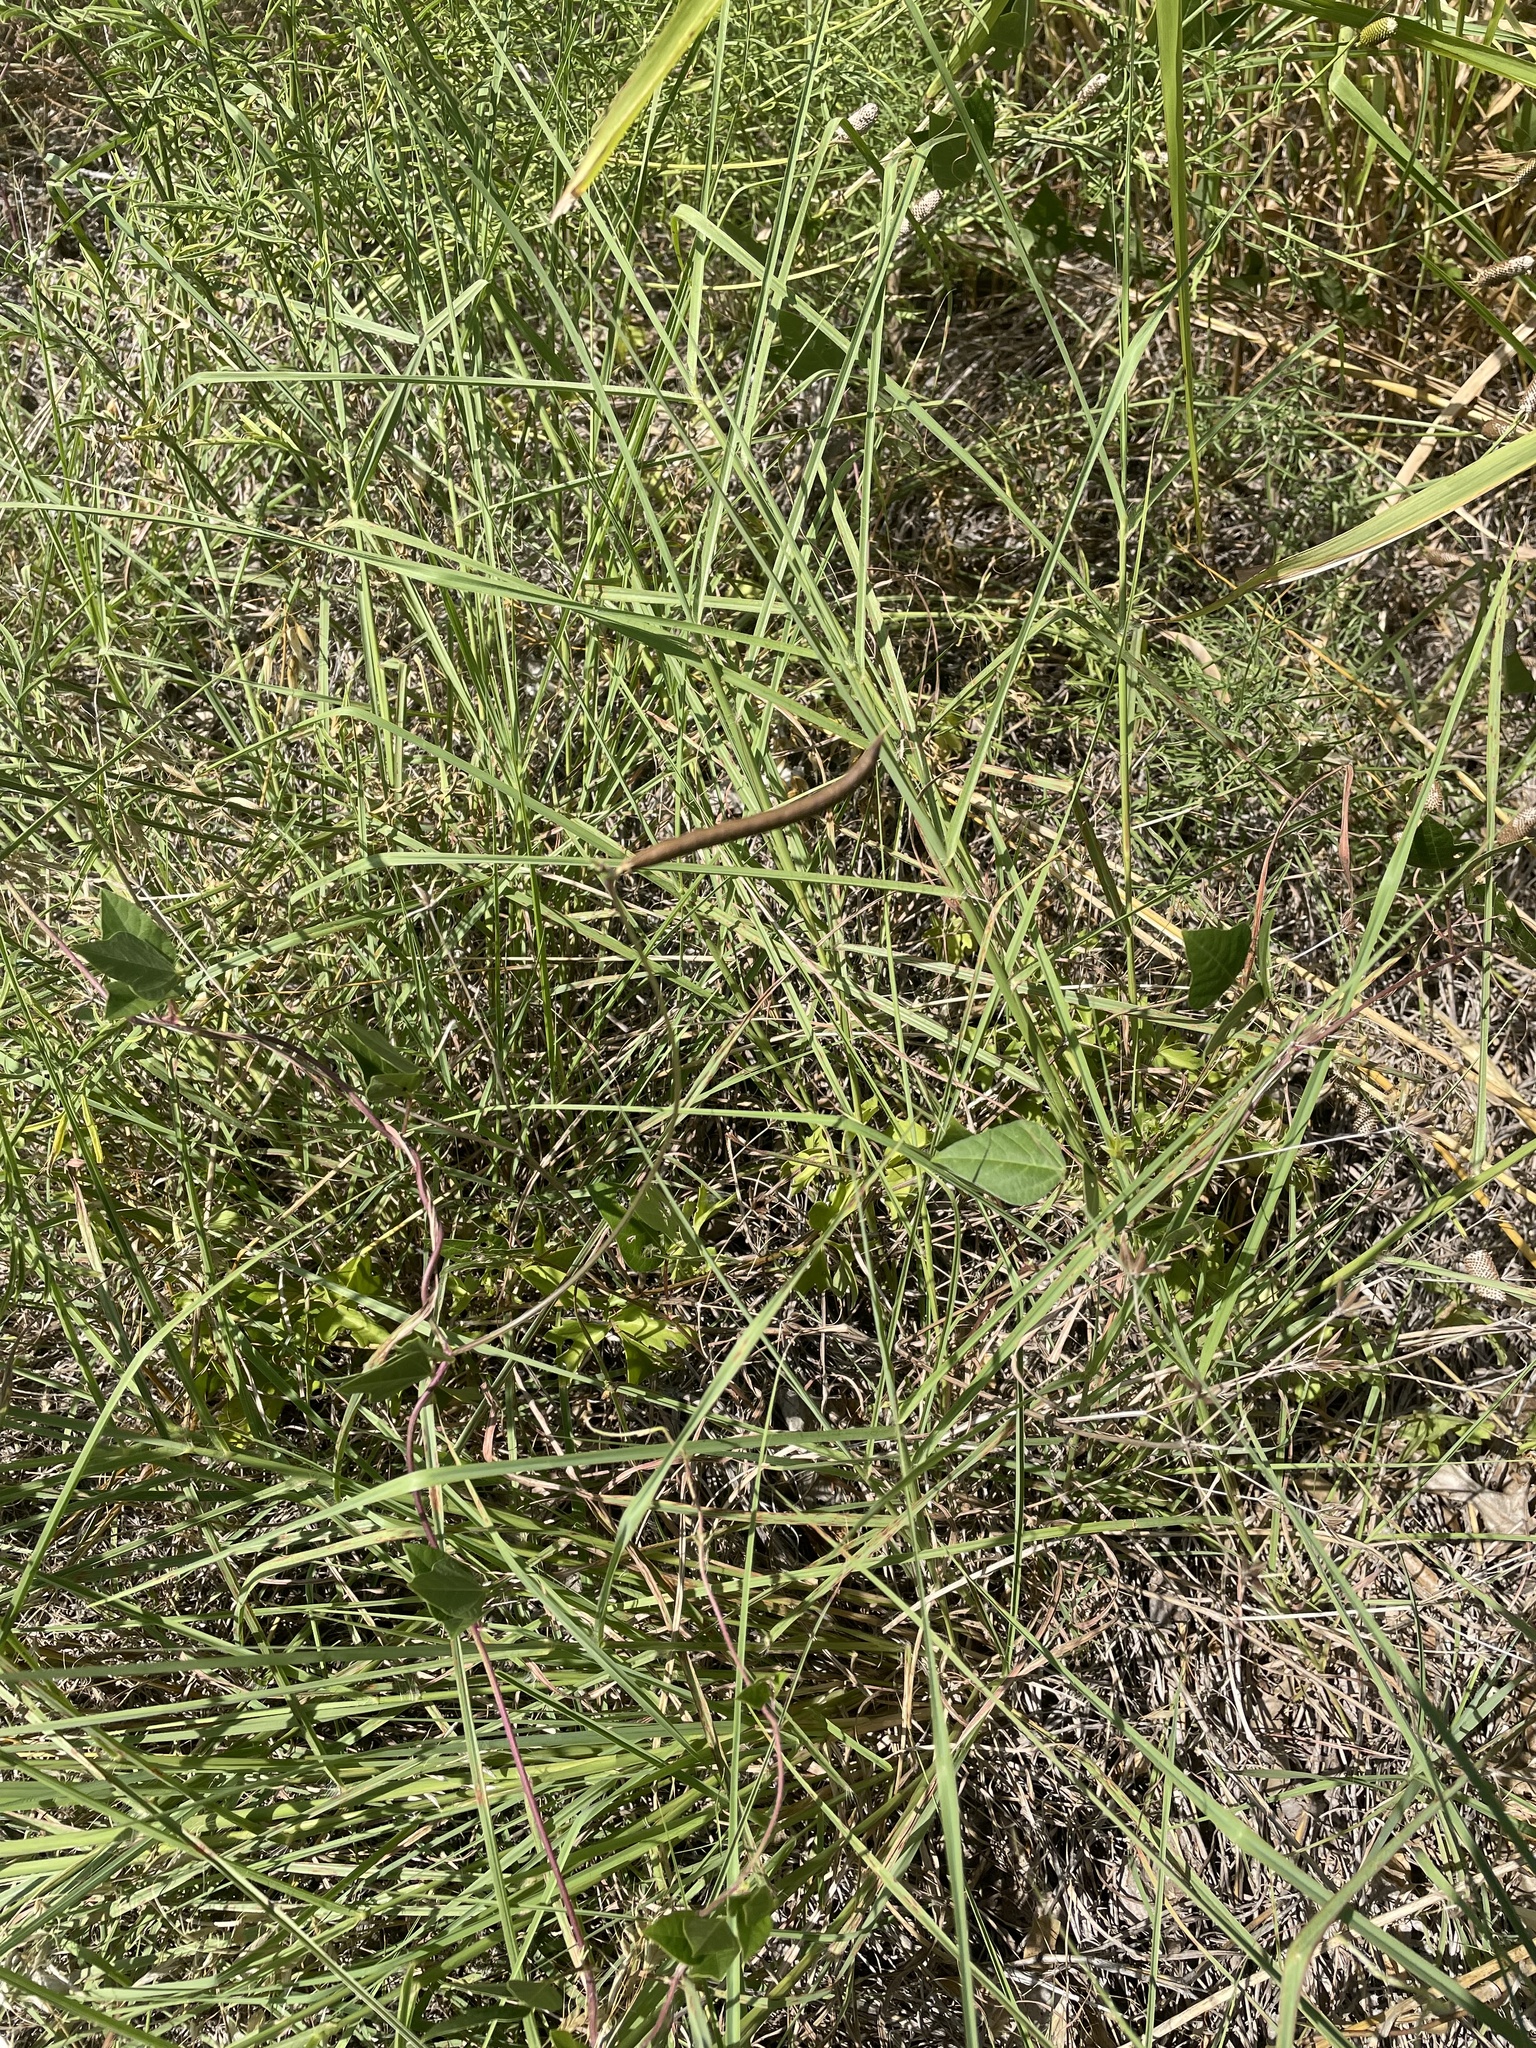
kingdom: Plantae
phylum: Tracheophyta
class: Magnoliopsida
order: Fabales
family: Fabaceae
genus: Strophostyles
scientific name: Strophostyles helvola
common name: Trailing wild bean
